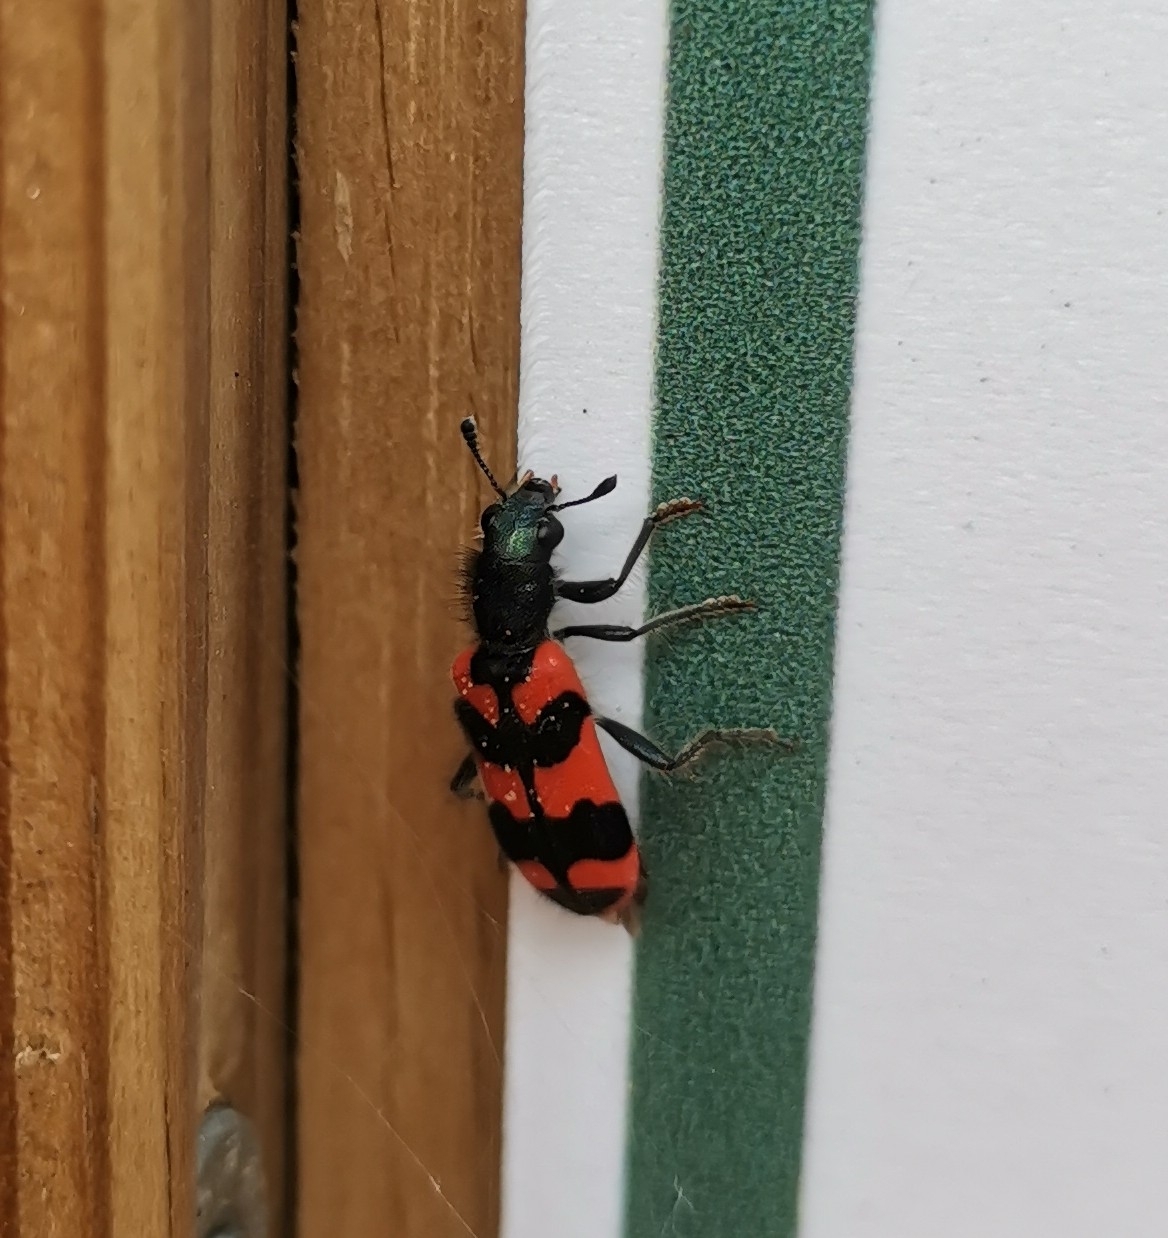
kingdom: Animalia
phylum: Arthropoda
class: Insecta
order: Coleoptera
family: Cleridae
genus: Trichodes
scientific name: Trichodes alvearius
